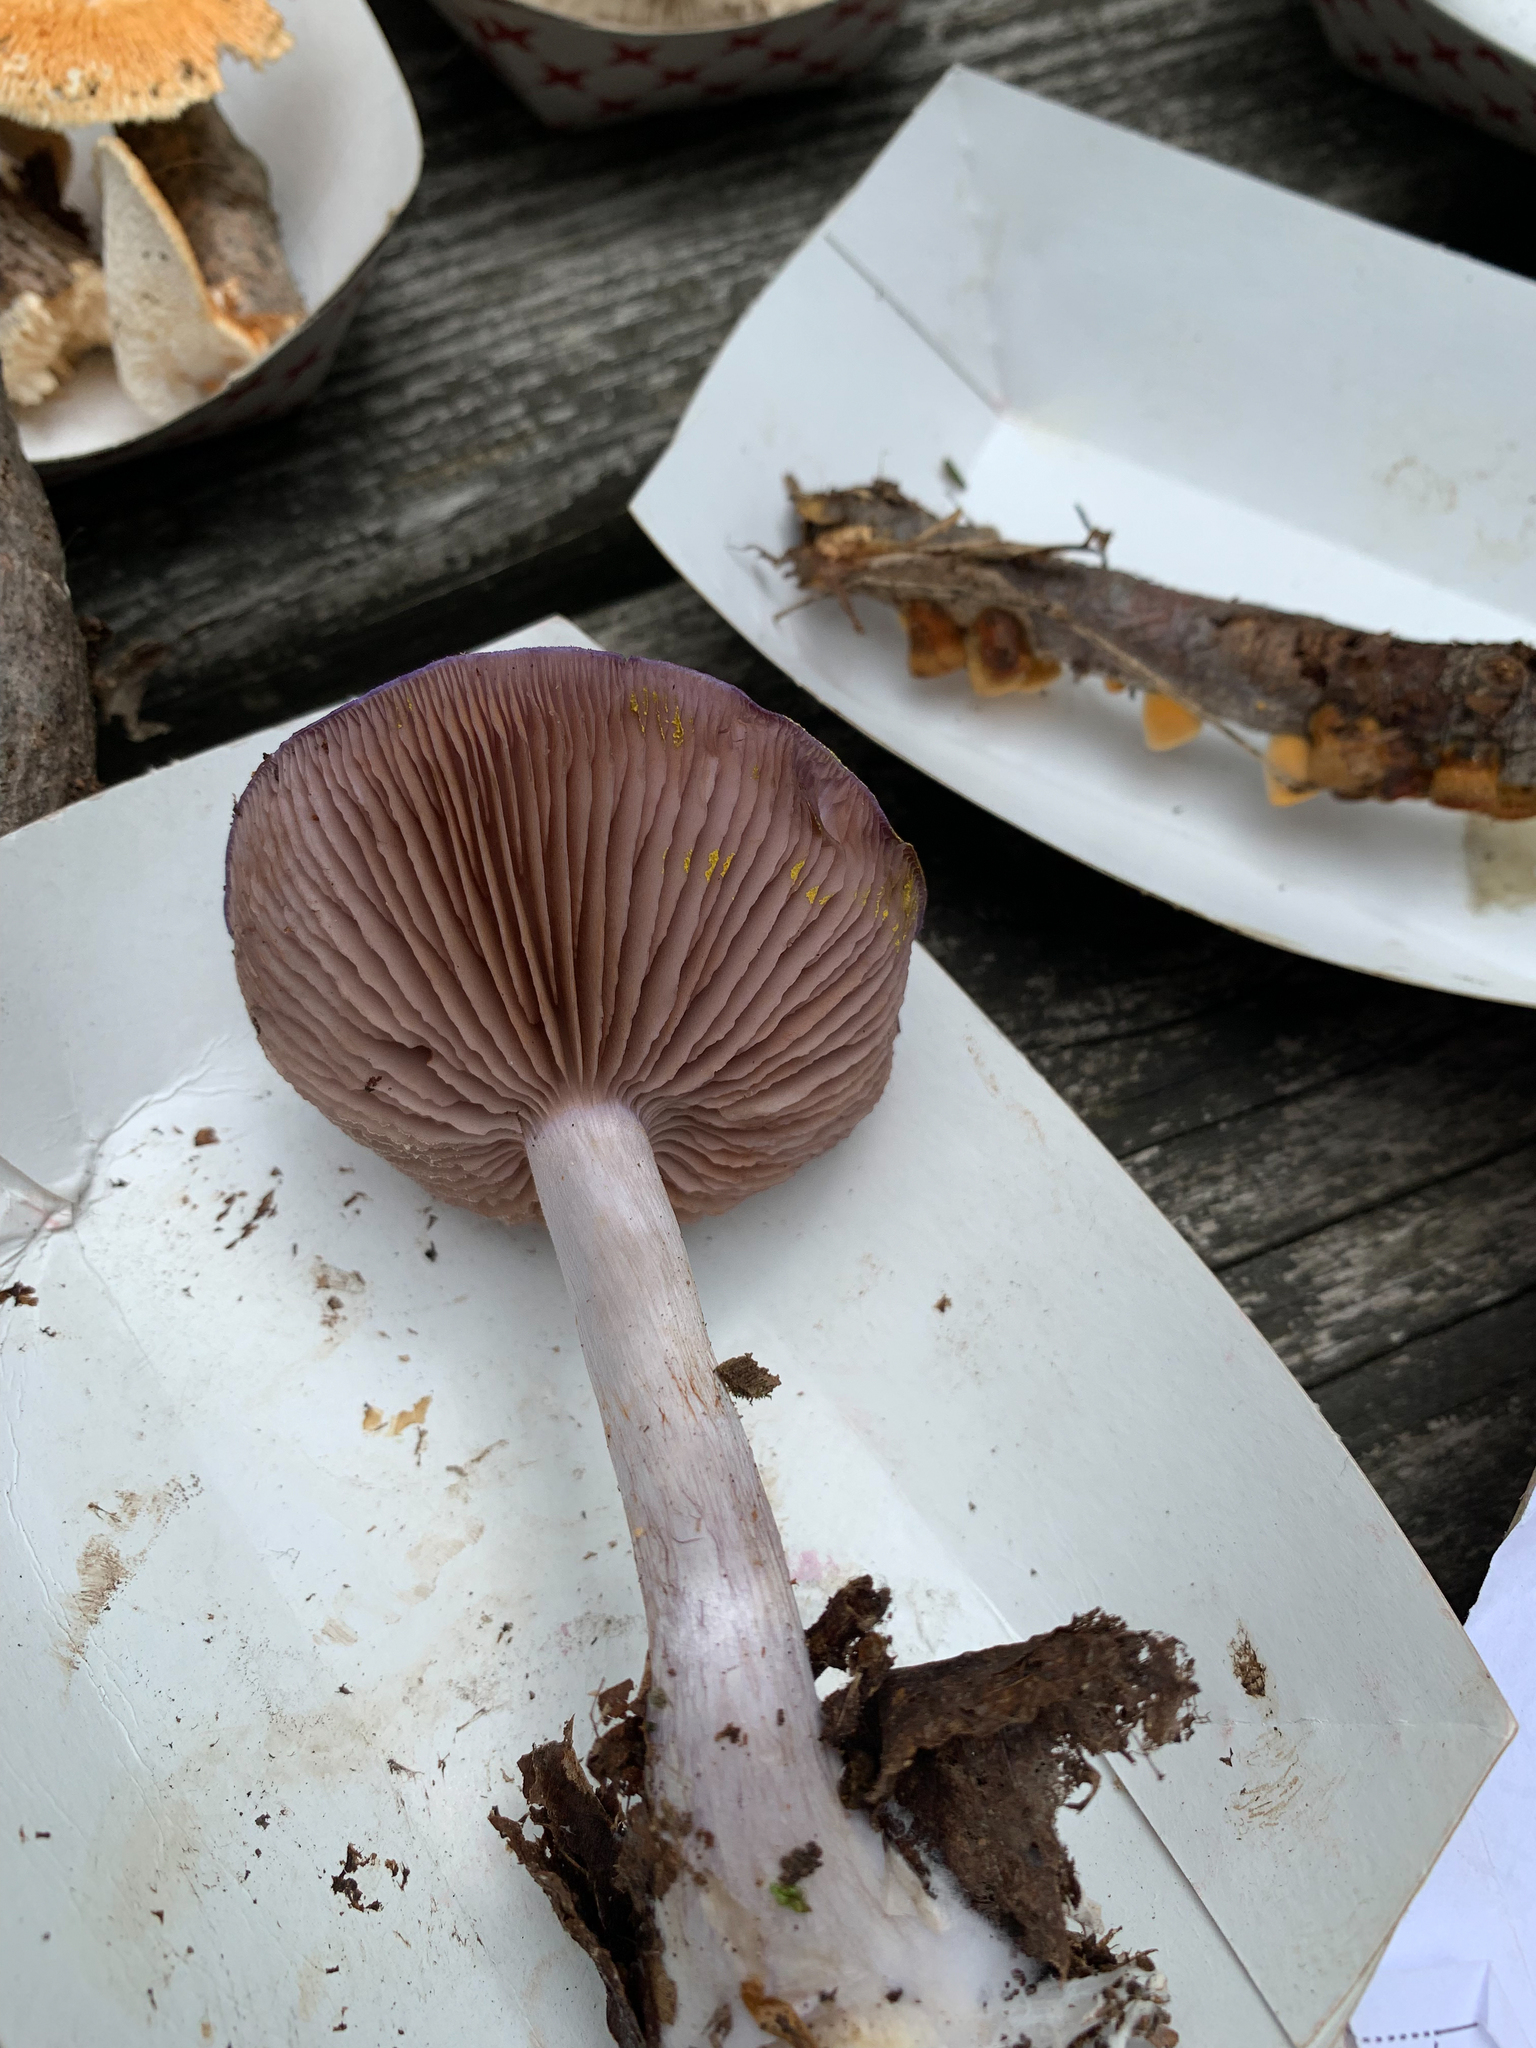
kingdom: Fungi
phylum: Basidiomycota
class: Agaricomycetes
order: Agaricales
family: Cortinariaceae
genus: Cortinarius
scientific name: Cortinarius iodes
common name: Viscid violet cort
